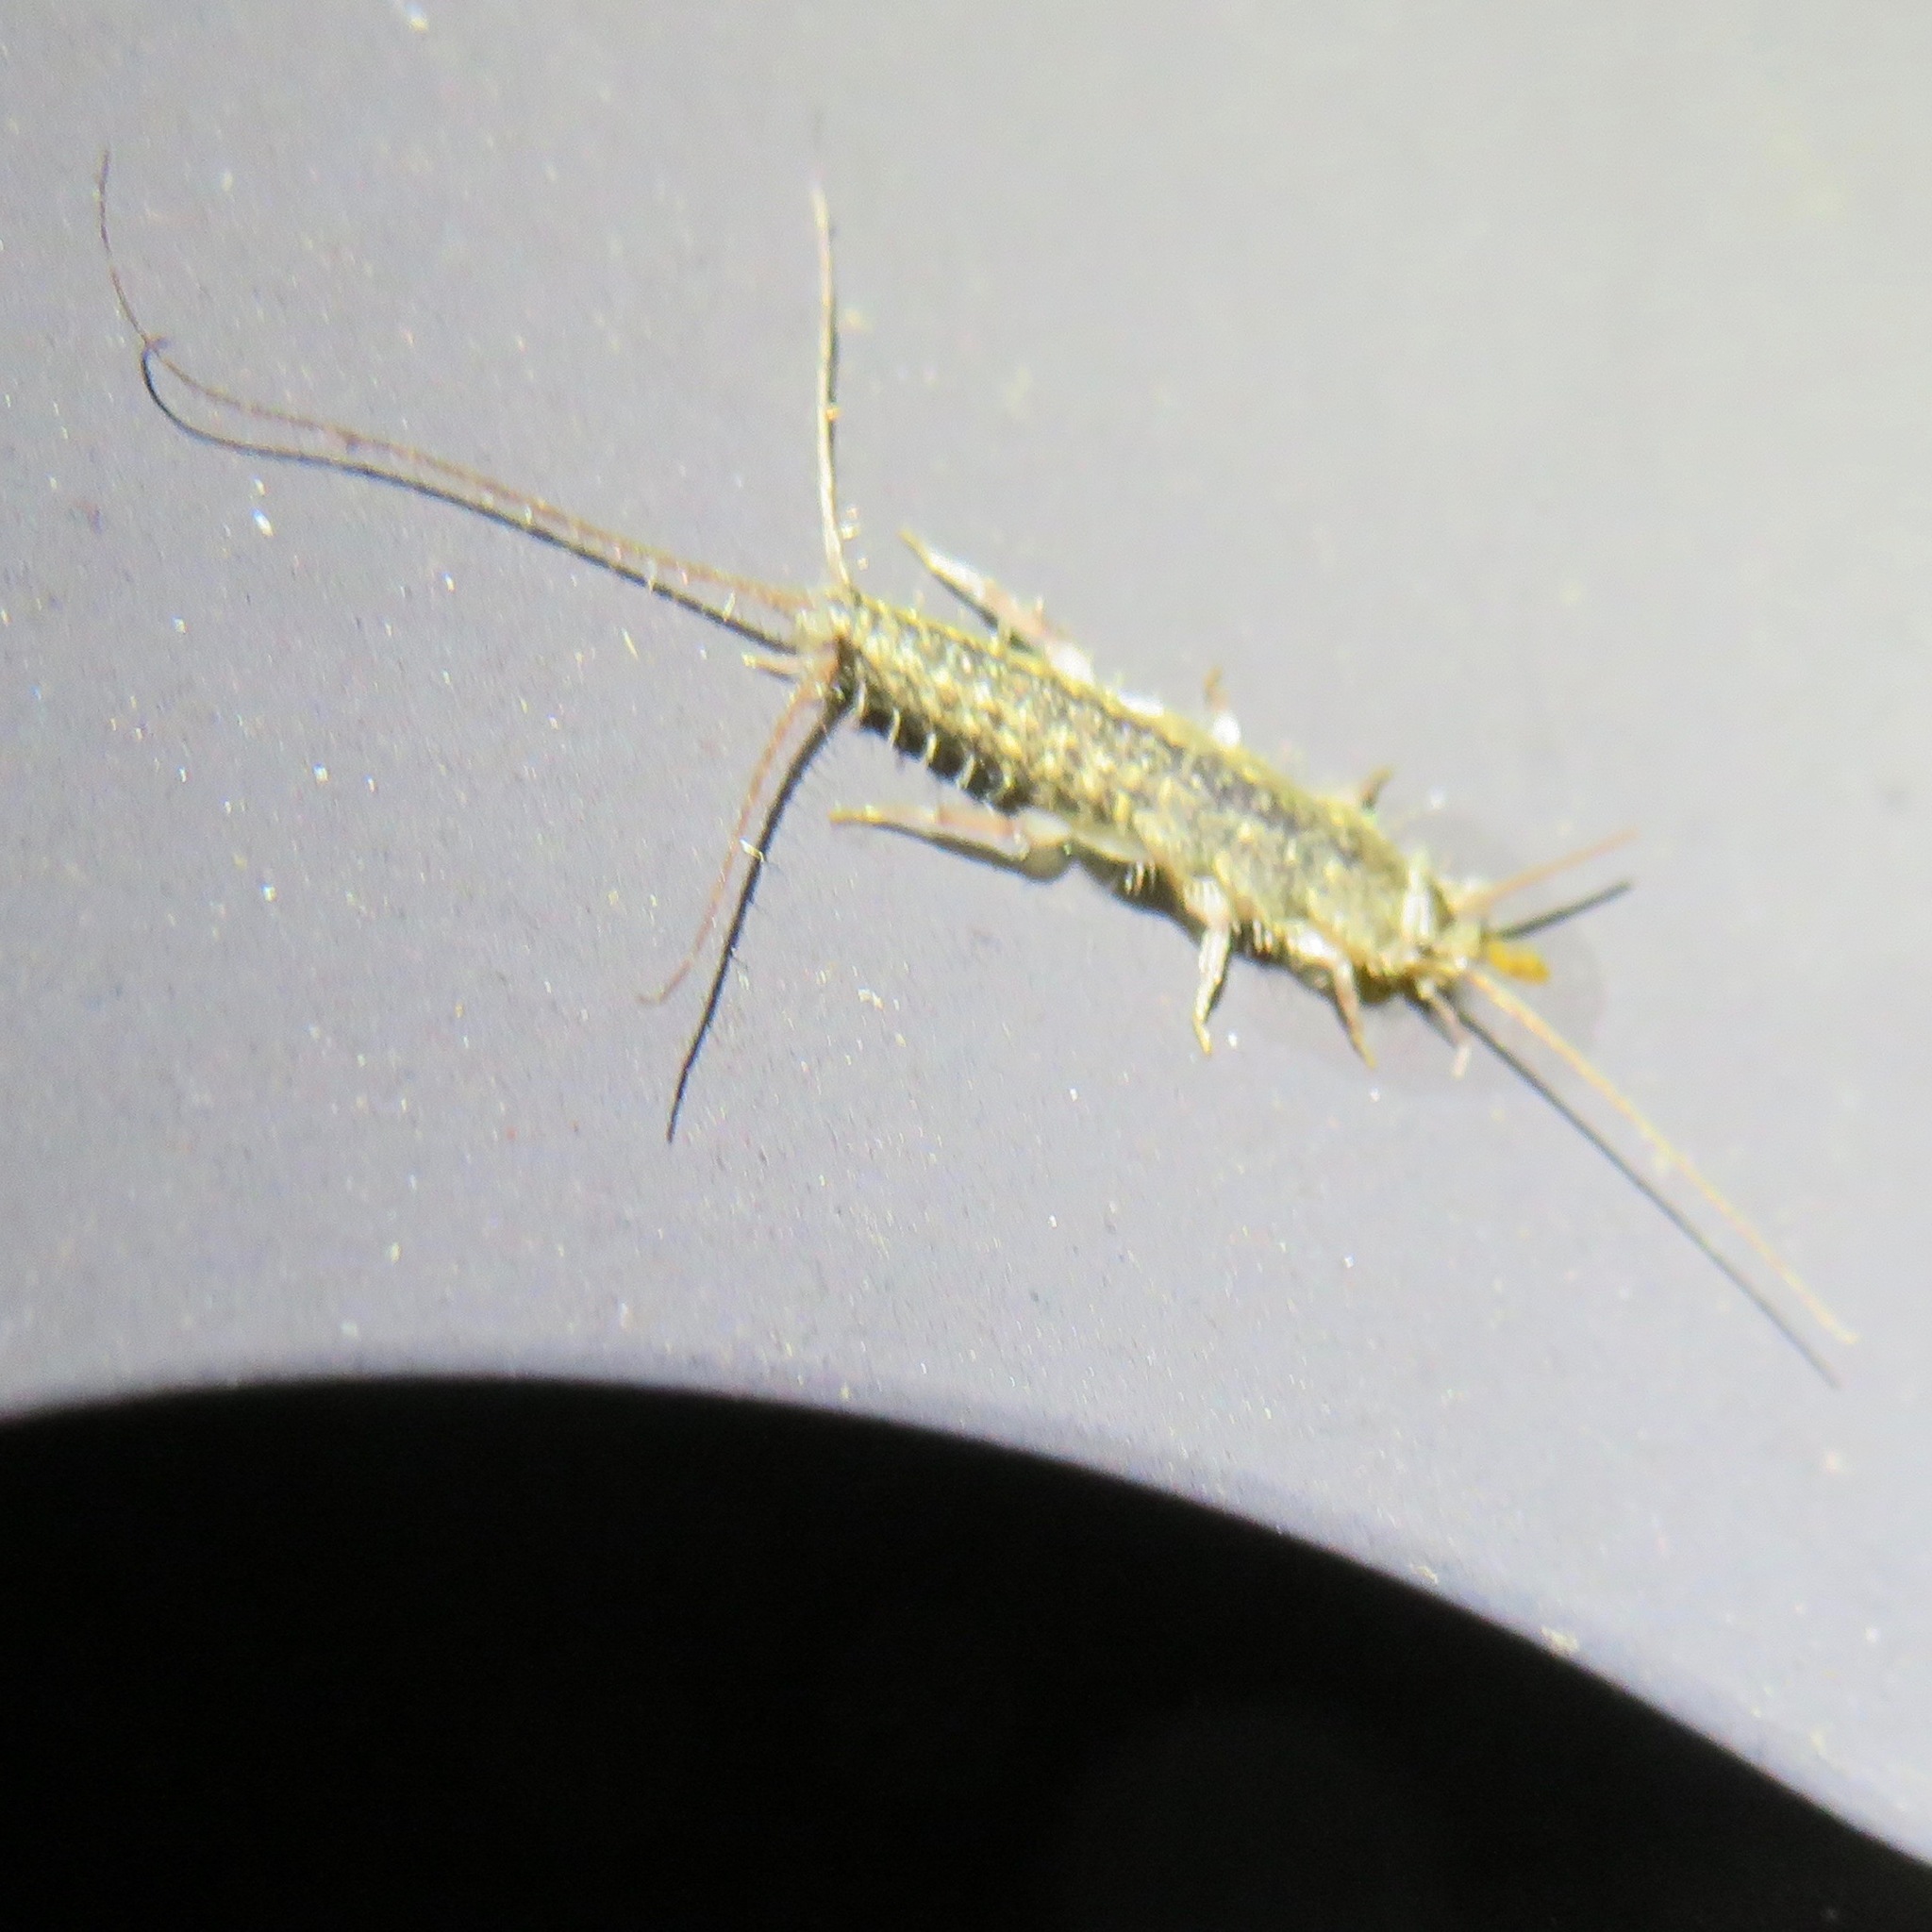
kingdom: Animalia
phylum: Arthropoda
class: Insecta
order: Zygentoma
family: Lepismatidae
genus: Ctenolepisma
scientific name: Ctenolepisma lineata
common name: Four-lined silverfish
